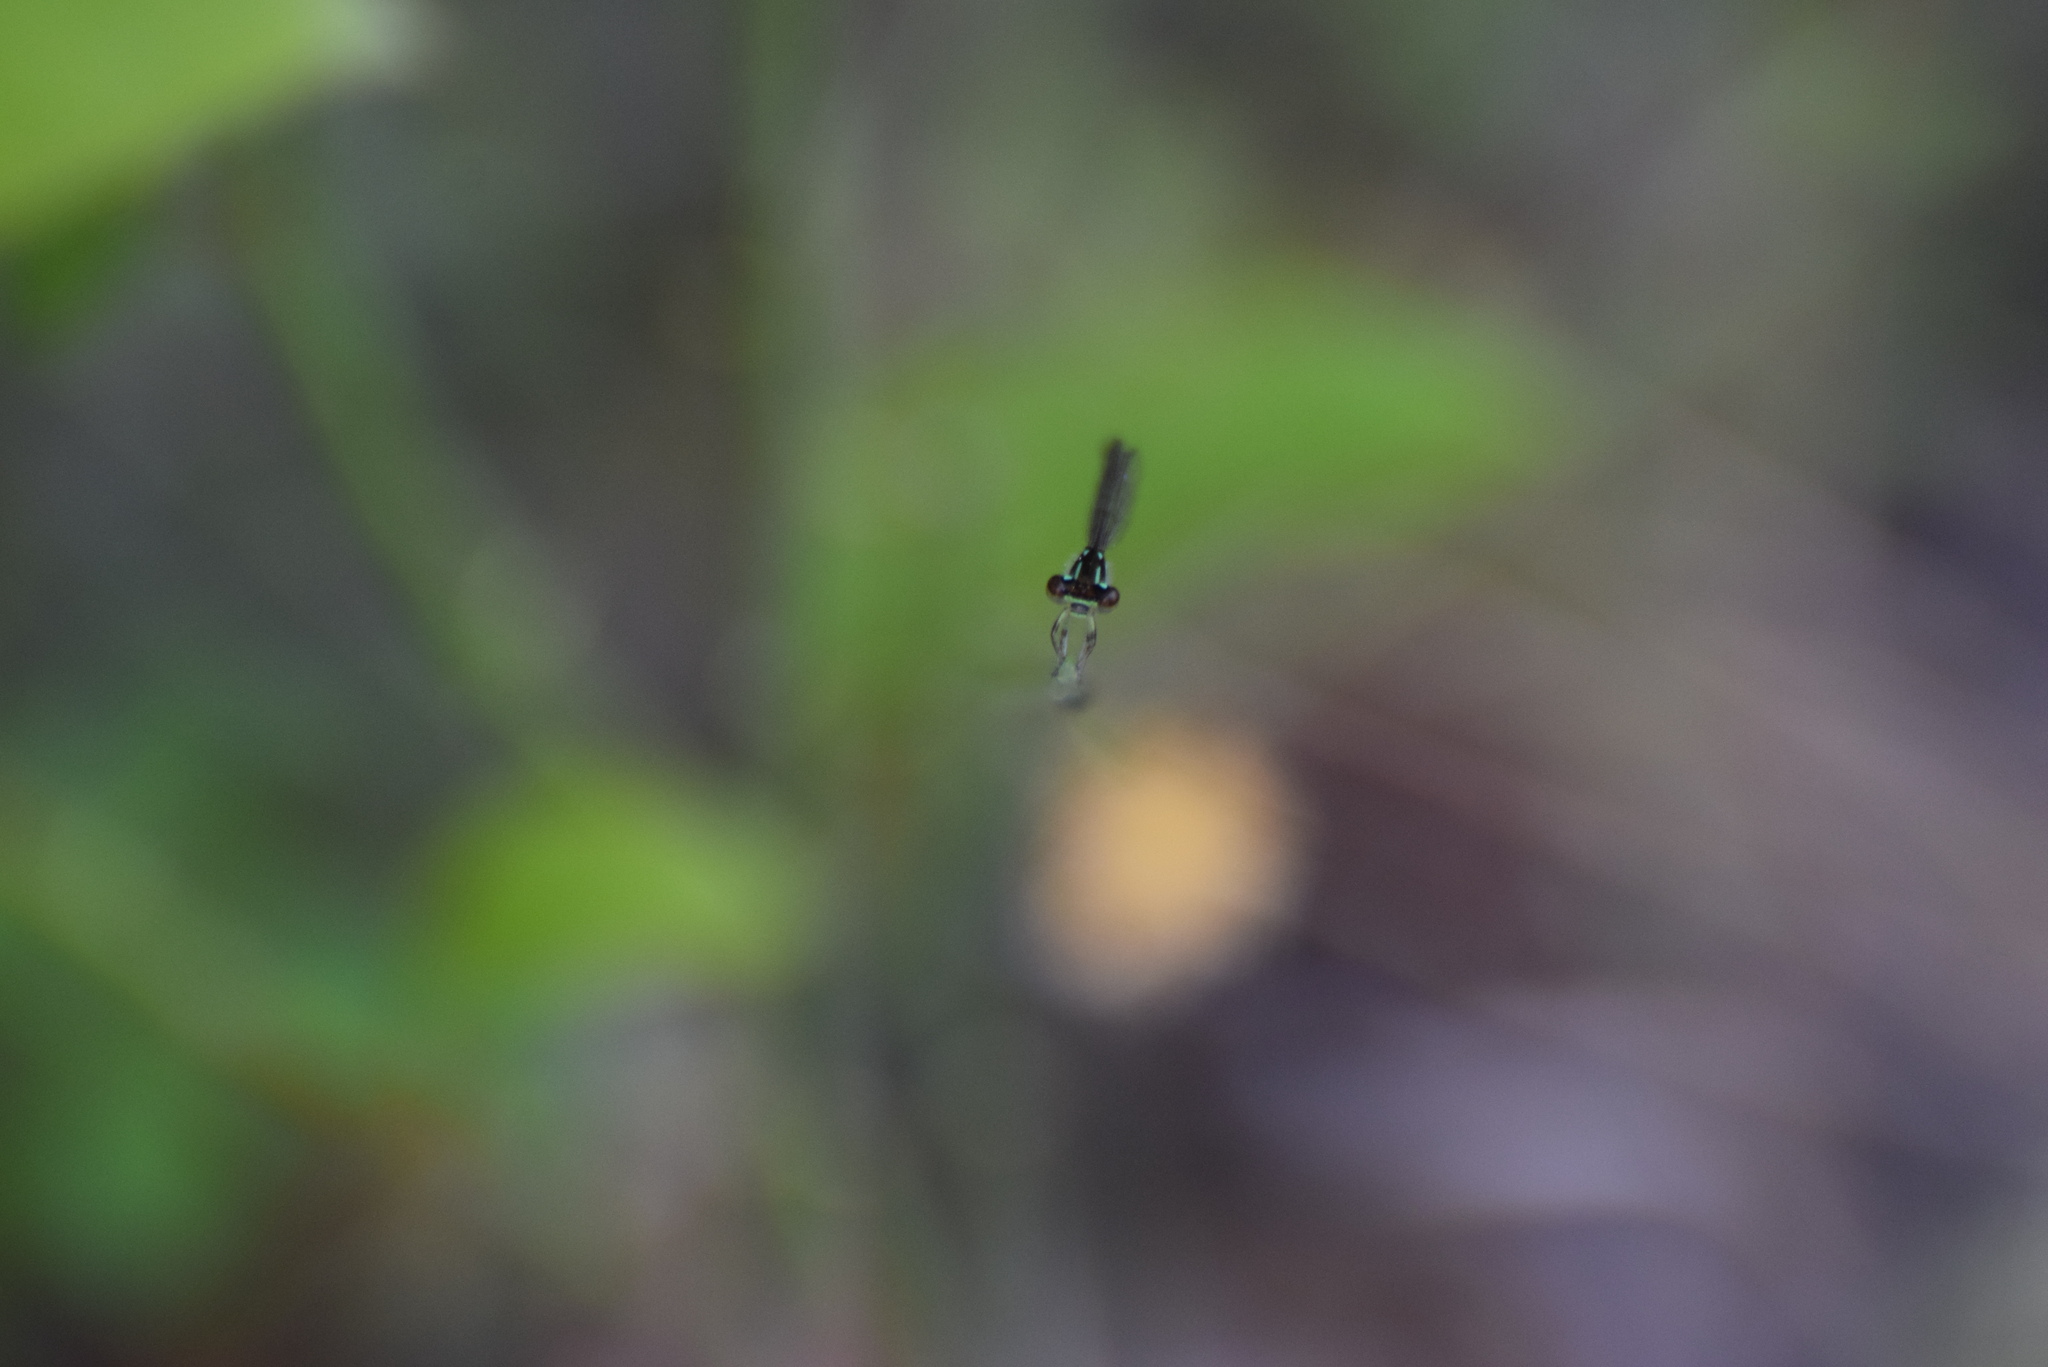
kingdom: Animalia
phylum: Arthropoda
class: Insecta
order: Odonata
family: Coenagrionidae
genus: Ischnura
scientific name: Ischnura posita
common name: Fragile forktail
